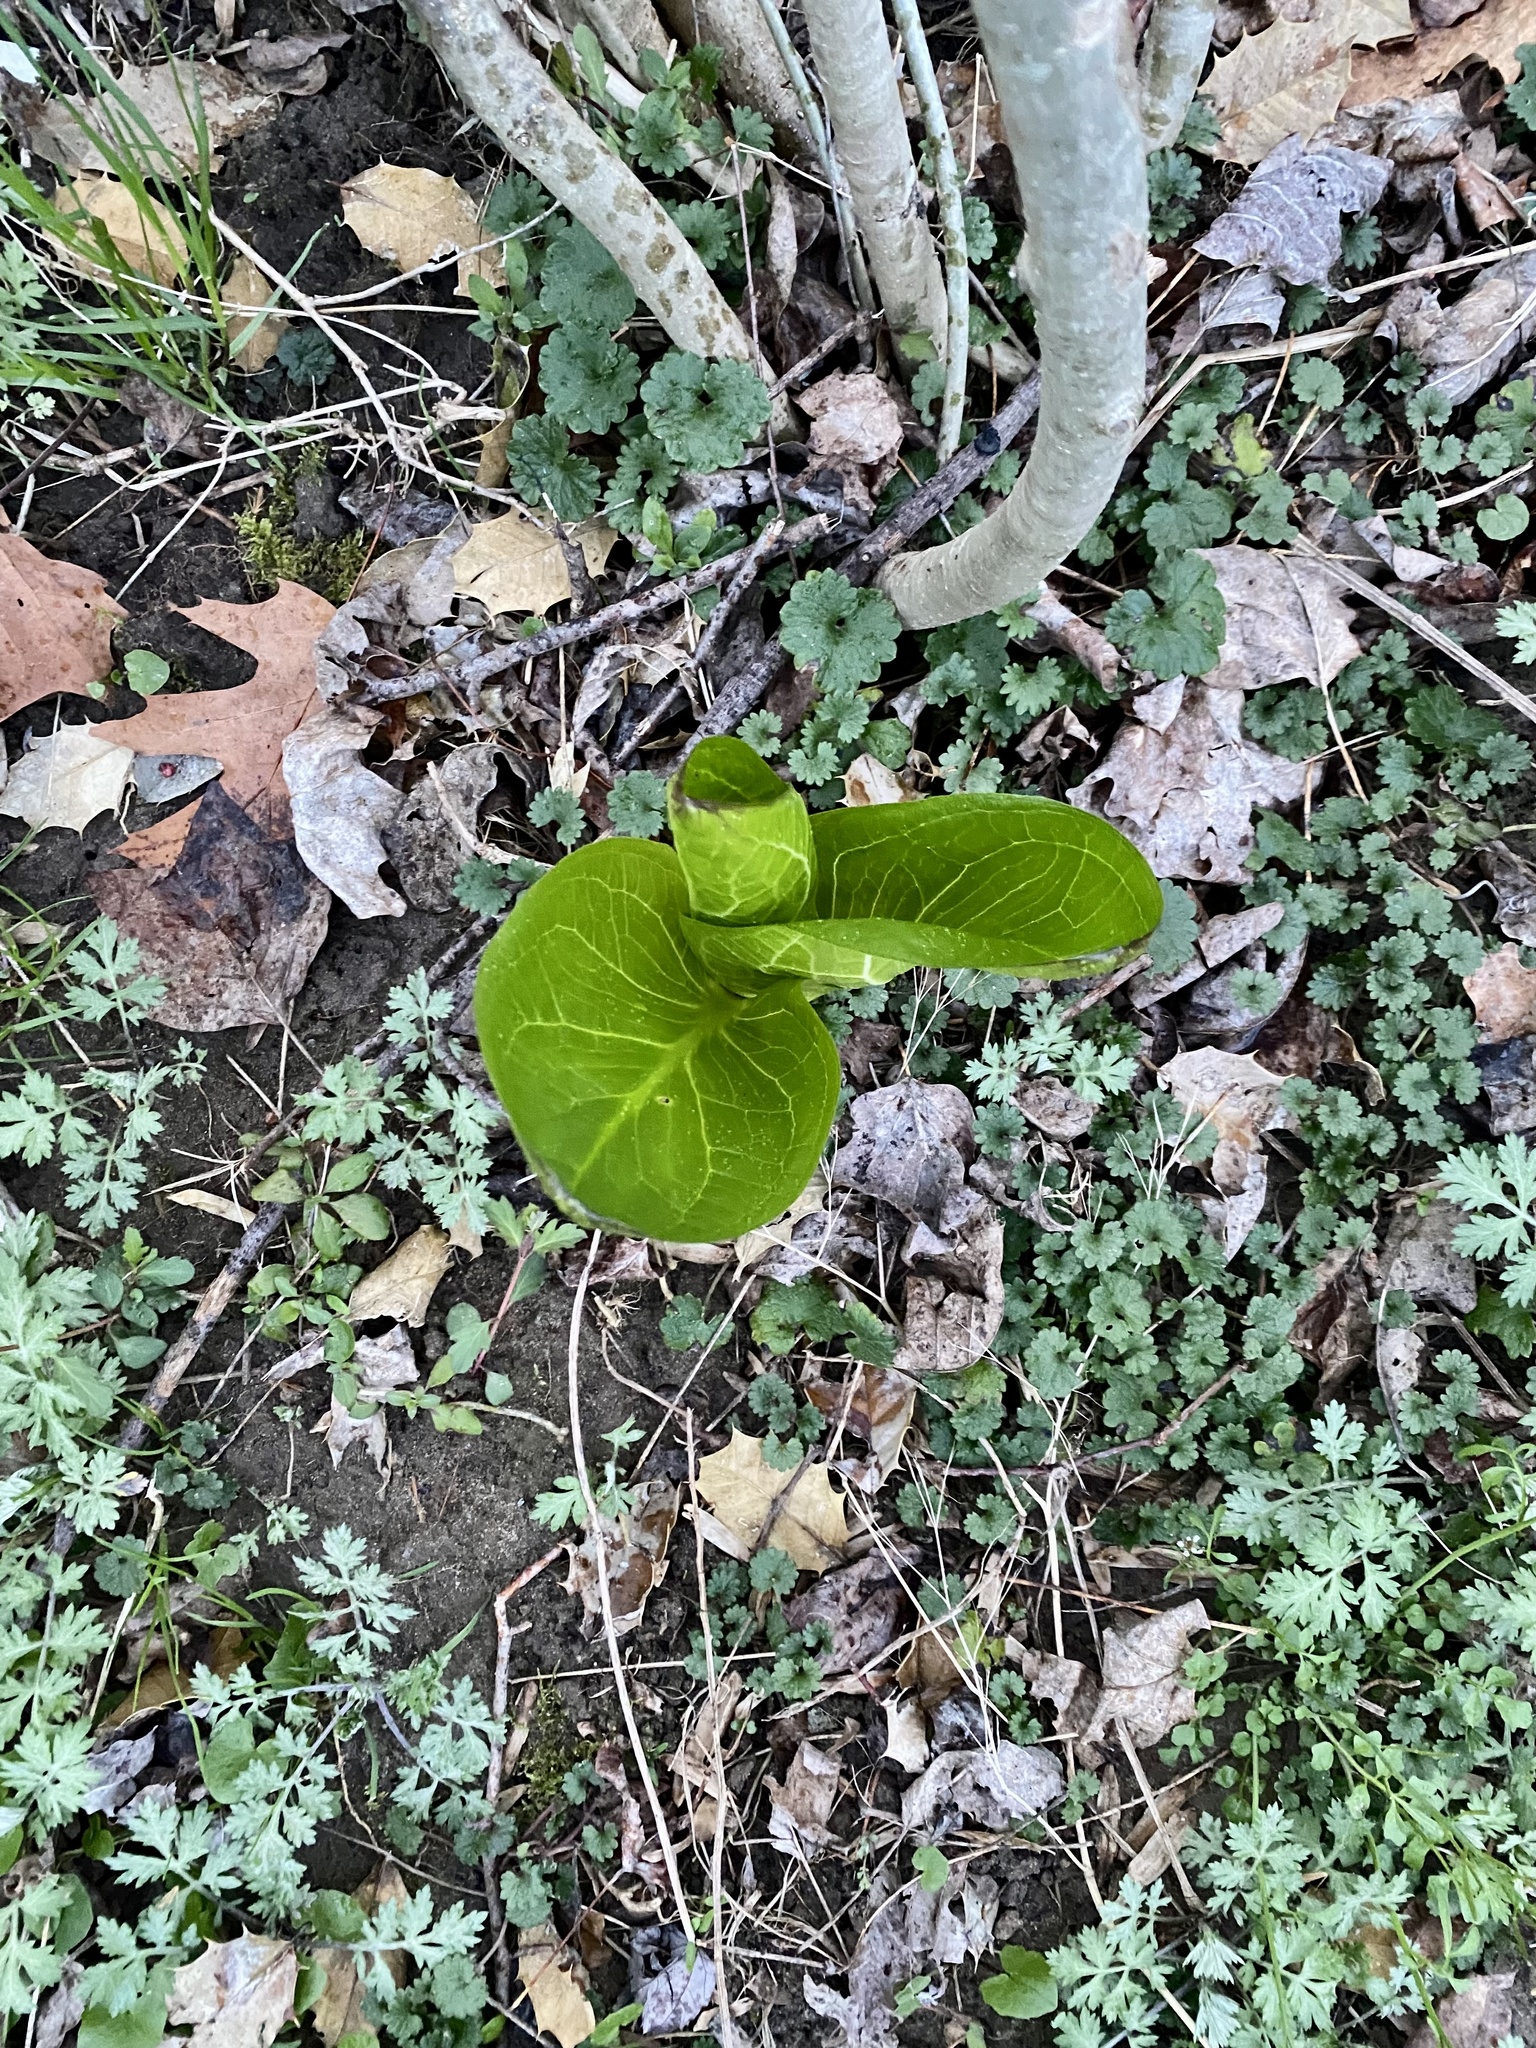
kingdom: Plantae
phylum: Tracheophyta
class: Liliopsida
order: Alismatales
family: Araceae
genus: Symplocarpus
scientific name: Symplocarpus foetidus
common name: Eastern skunk cabbage
